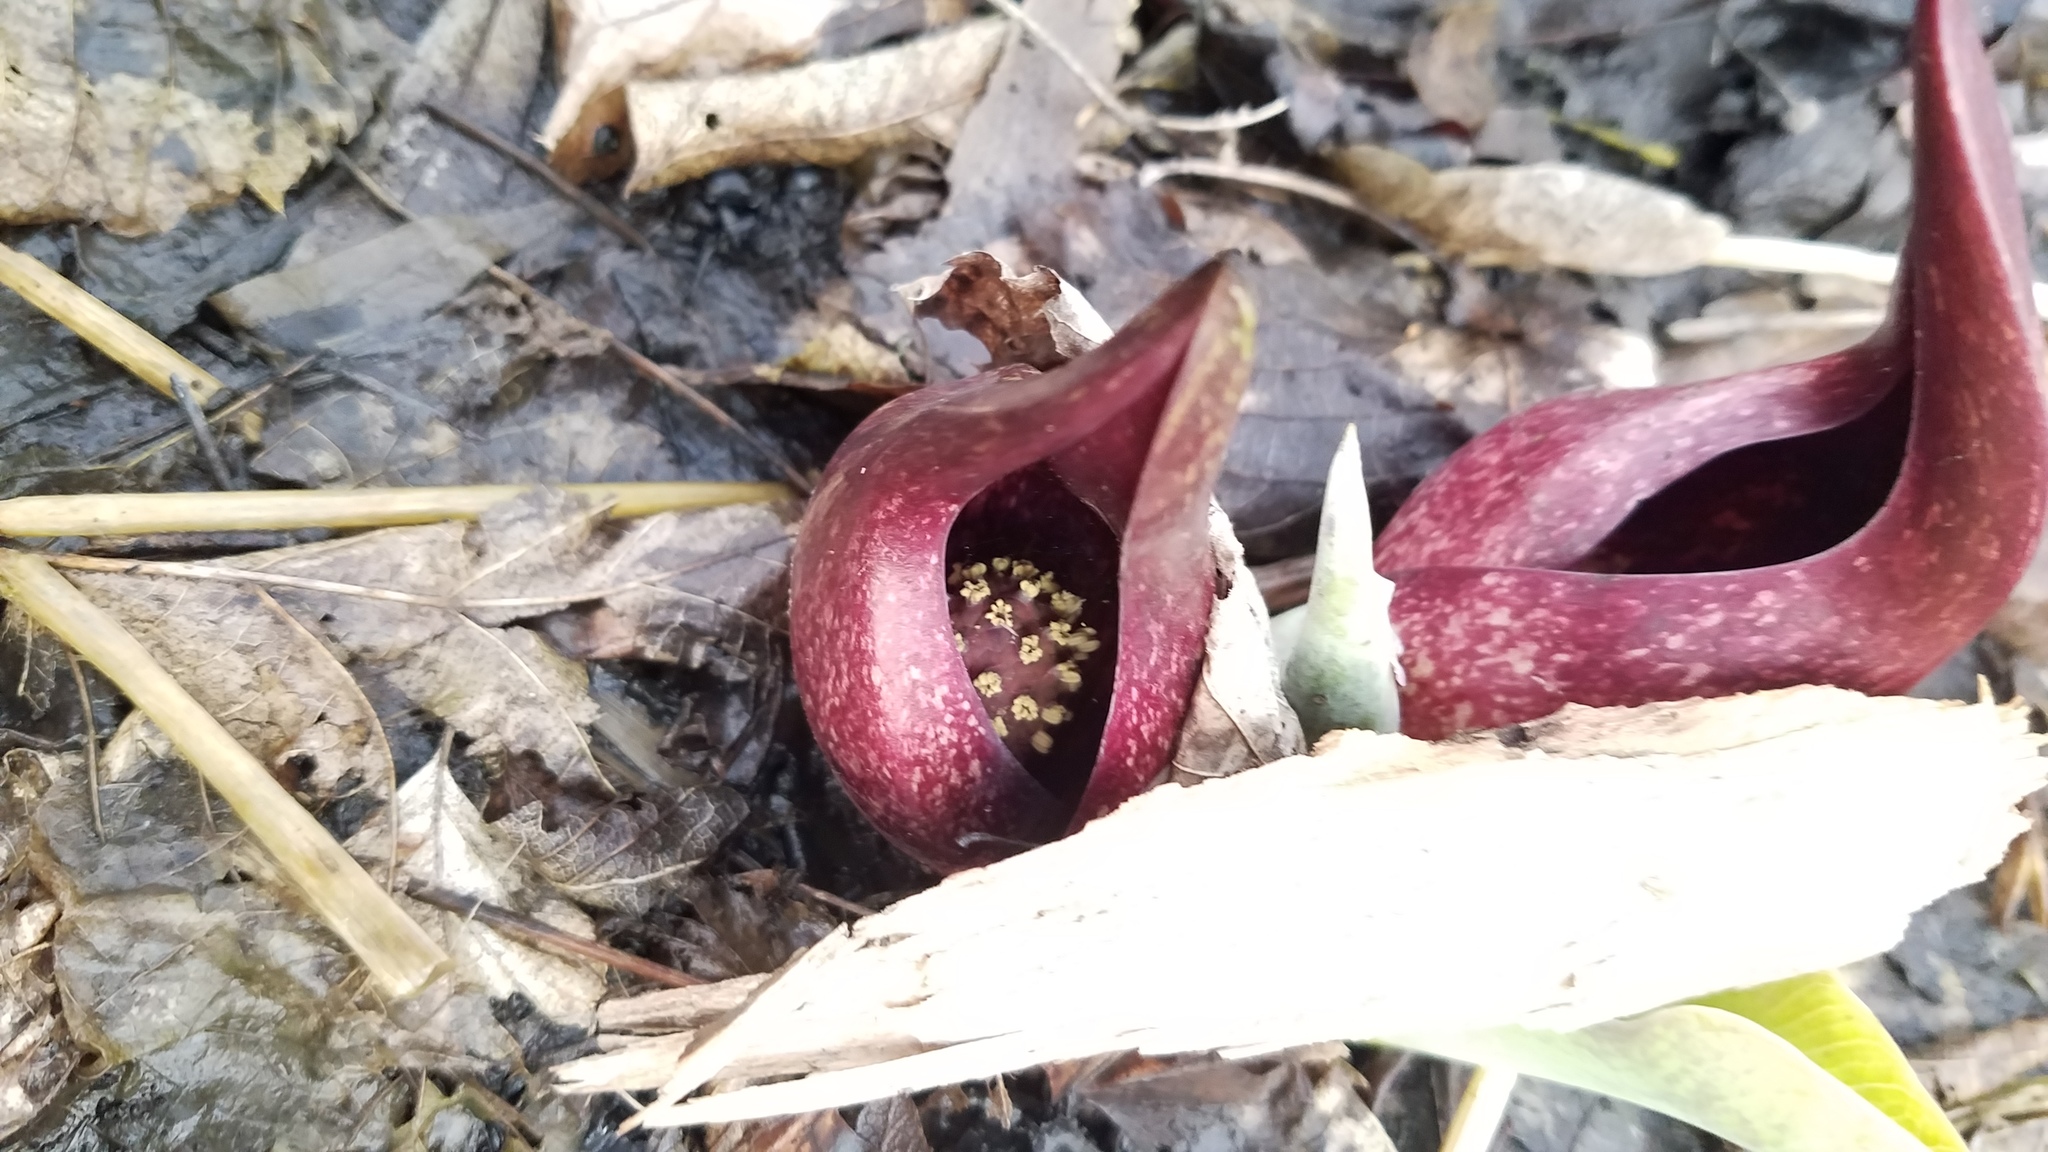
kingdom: Plantae
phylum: Tracheophyta
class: Liliopsida
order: Alismatales
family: Araceae
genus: Symplocarpus
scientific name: Symplocarpus foetidus
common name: Eastern skunk cabbage
